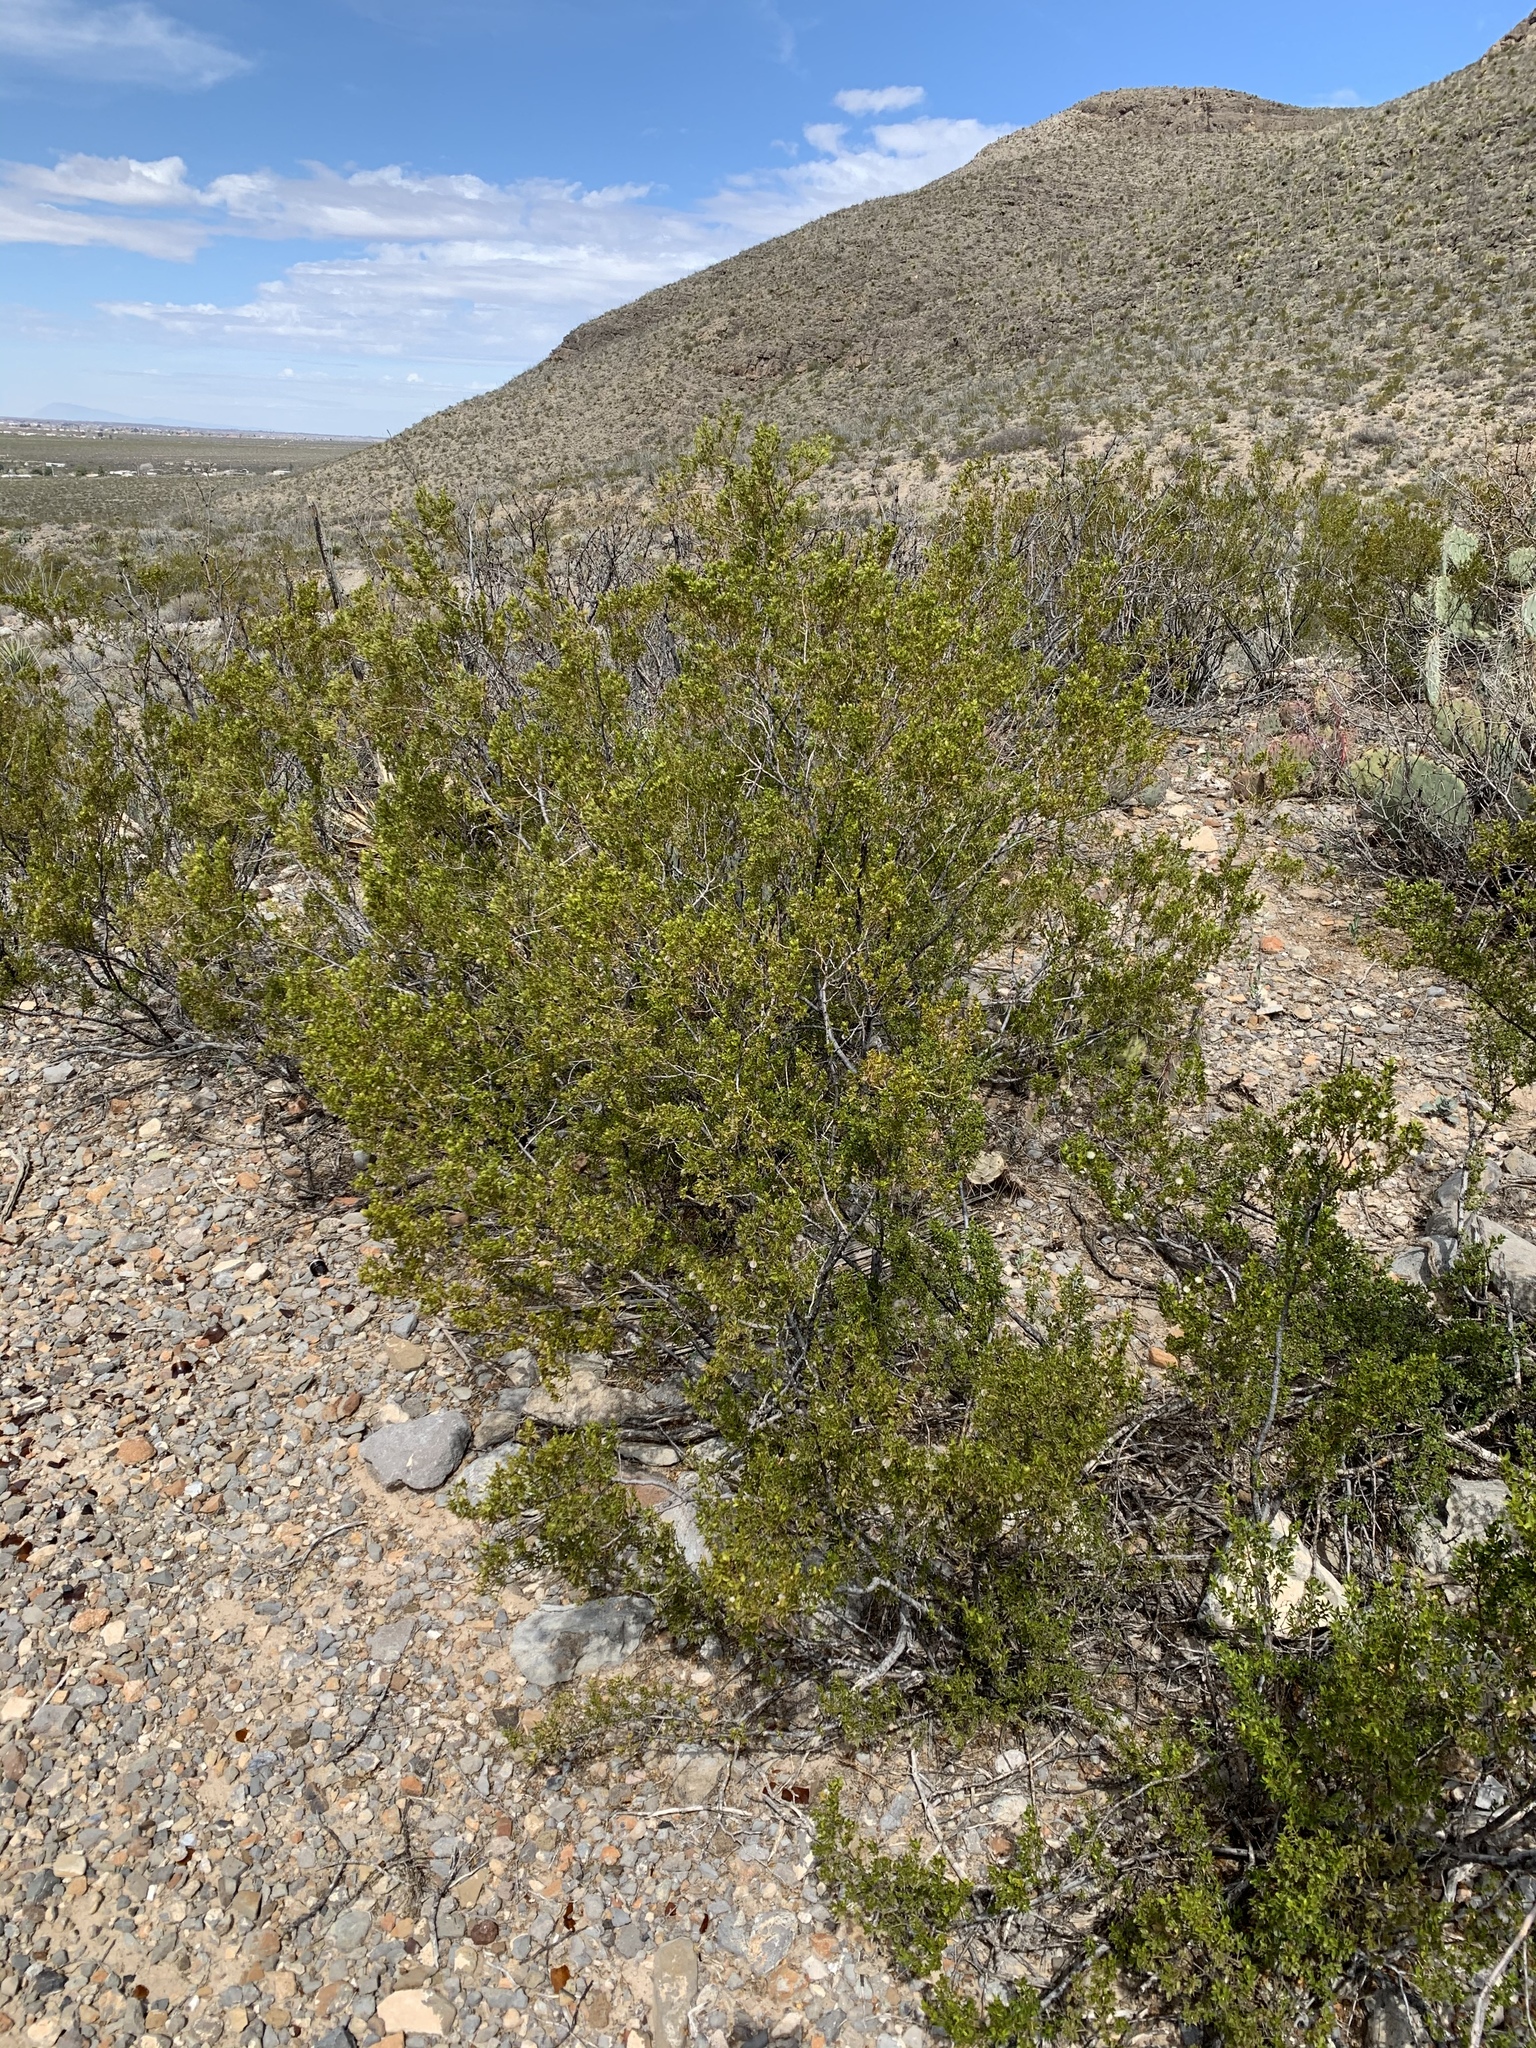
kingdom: Plantae
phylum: Tracheophyta
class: Magnoliopsida
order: Zygophyllales
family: Zygophyllaceae
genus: Larrea
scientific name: Larrea tridentata
